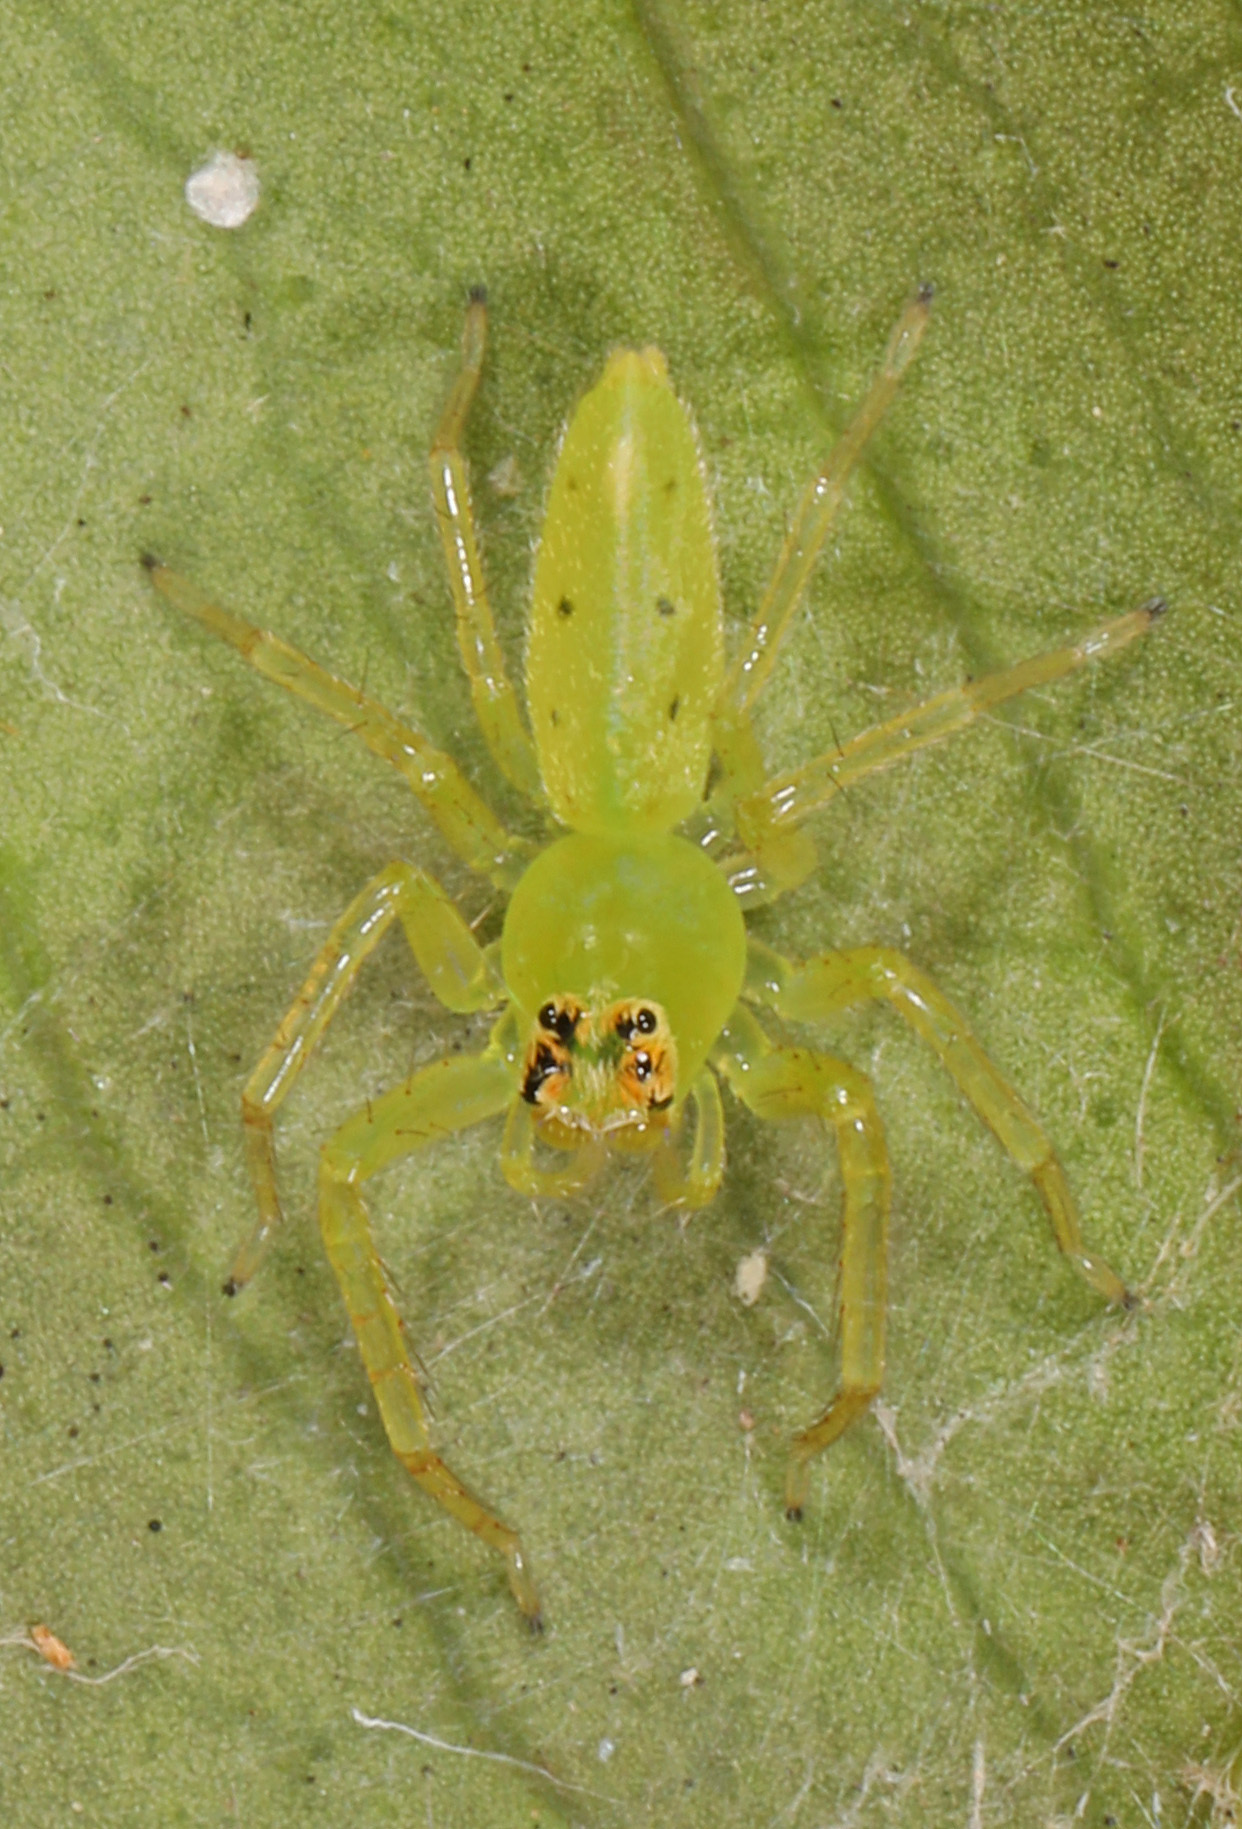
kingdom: Animalia
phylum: Arthropoda
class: Arachnida
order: Araneae
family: Salticidae
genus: Lyssomanes
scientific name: Lyssomanes viridis
